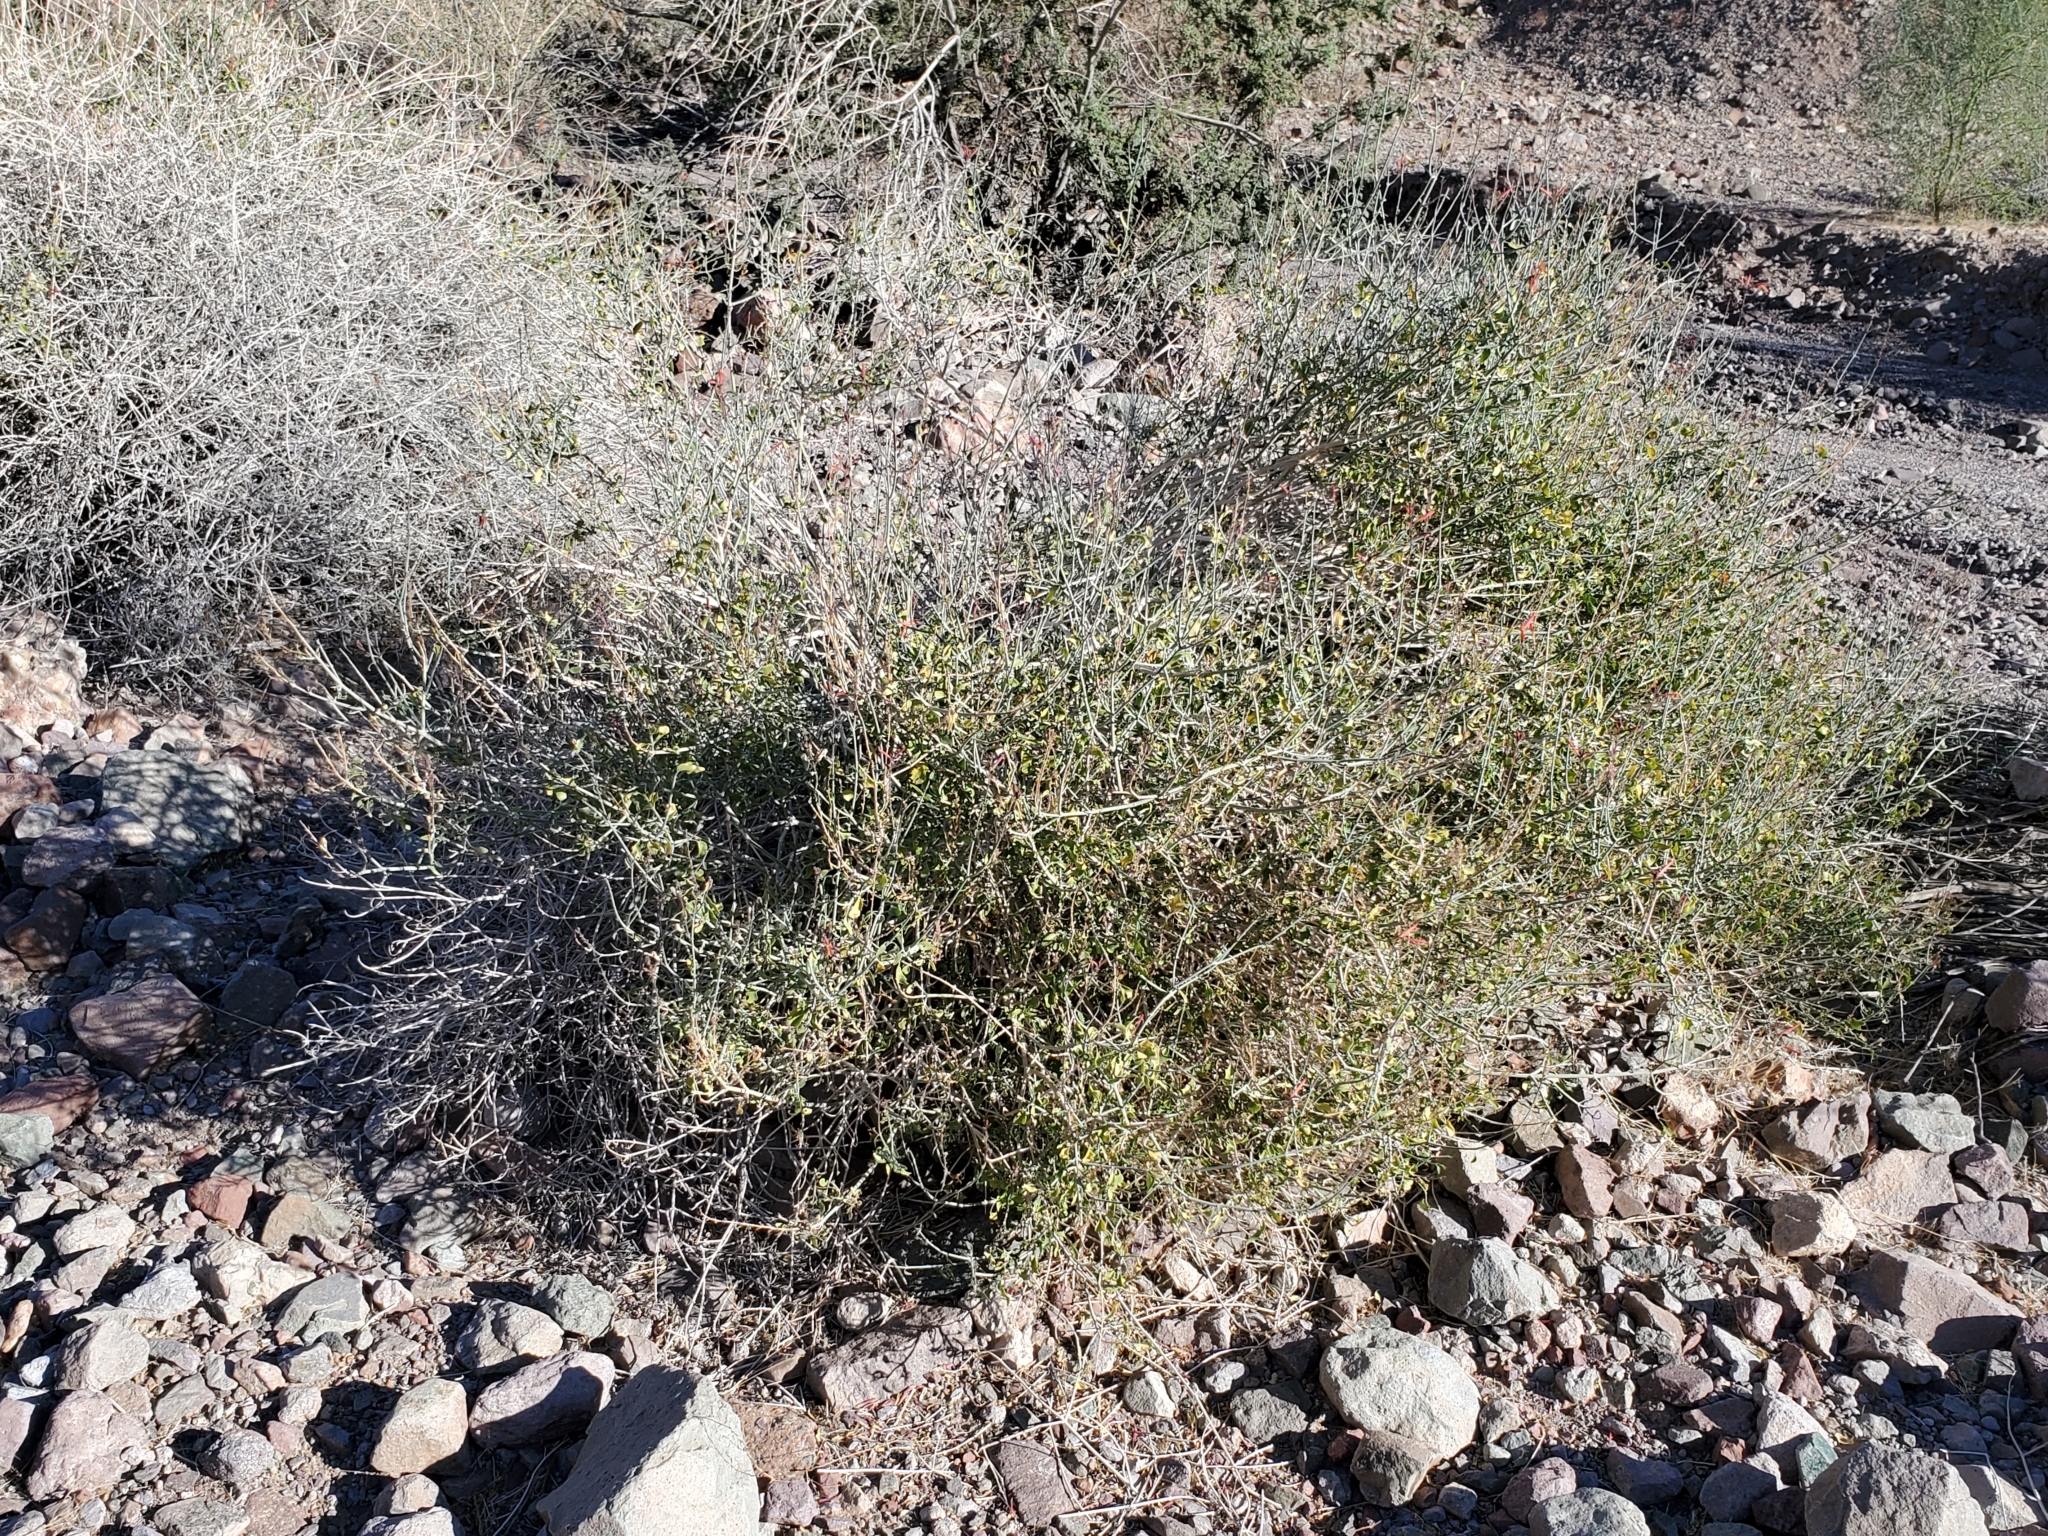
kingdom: Plantae
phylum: Tracheophyta
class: Magnoliopsida
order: Lamiales
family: Acanthaceae
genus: Justicia
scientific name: Justicia californica
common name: Chuparosa-honeysuckle
